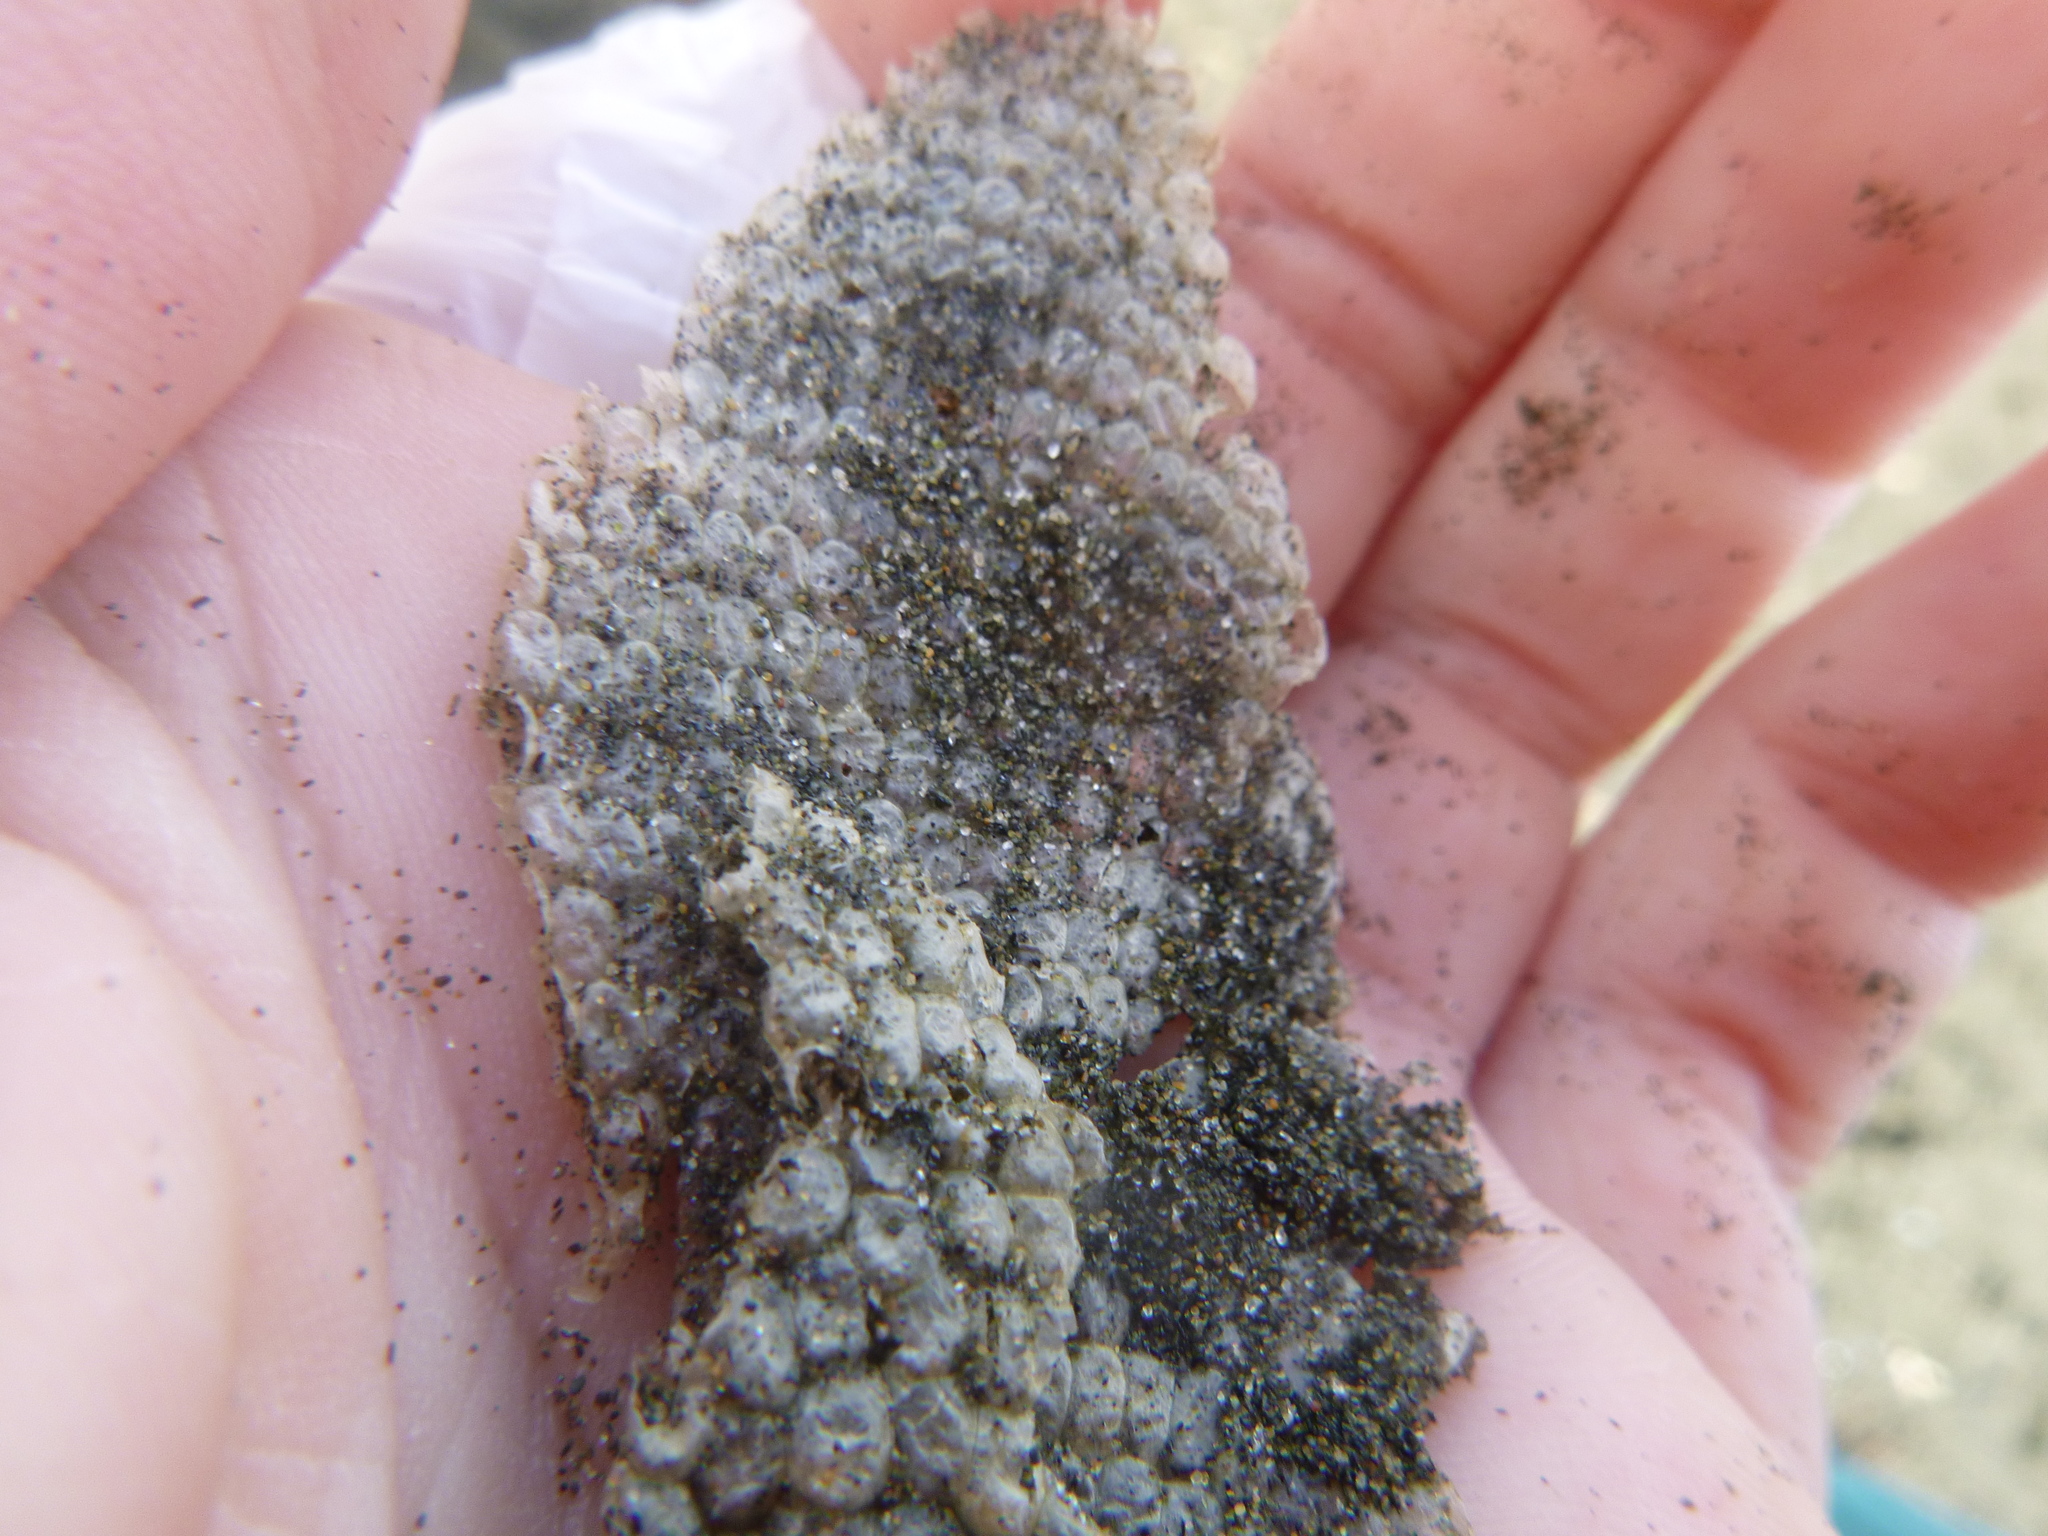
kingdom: Animalia
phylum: Mollusca
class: Gastropoda
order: Littorinimorpha
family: Tonnidae
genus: Tonna
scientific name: Tonna tankervillii
